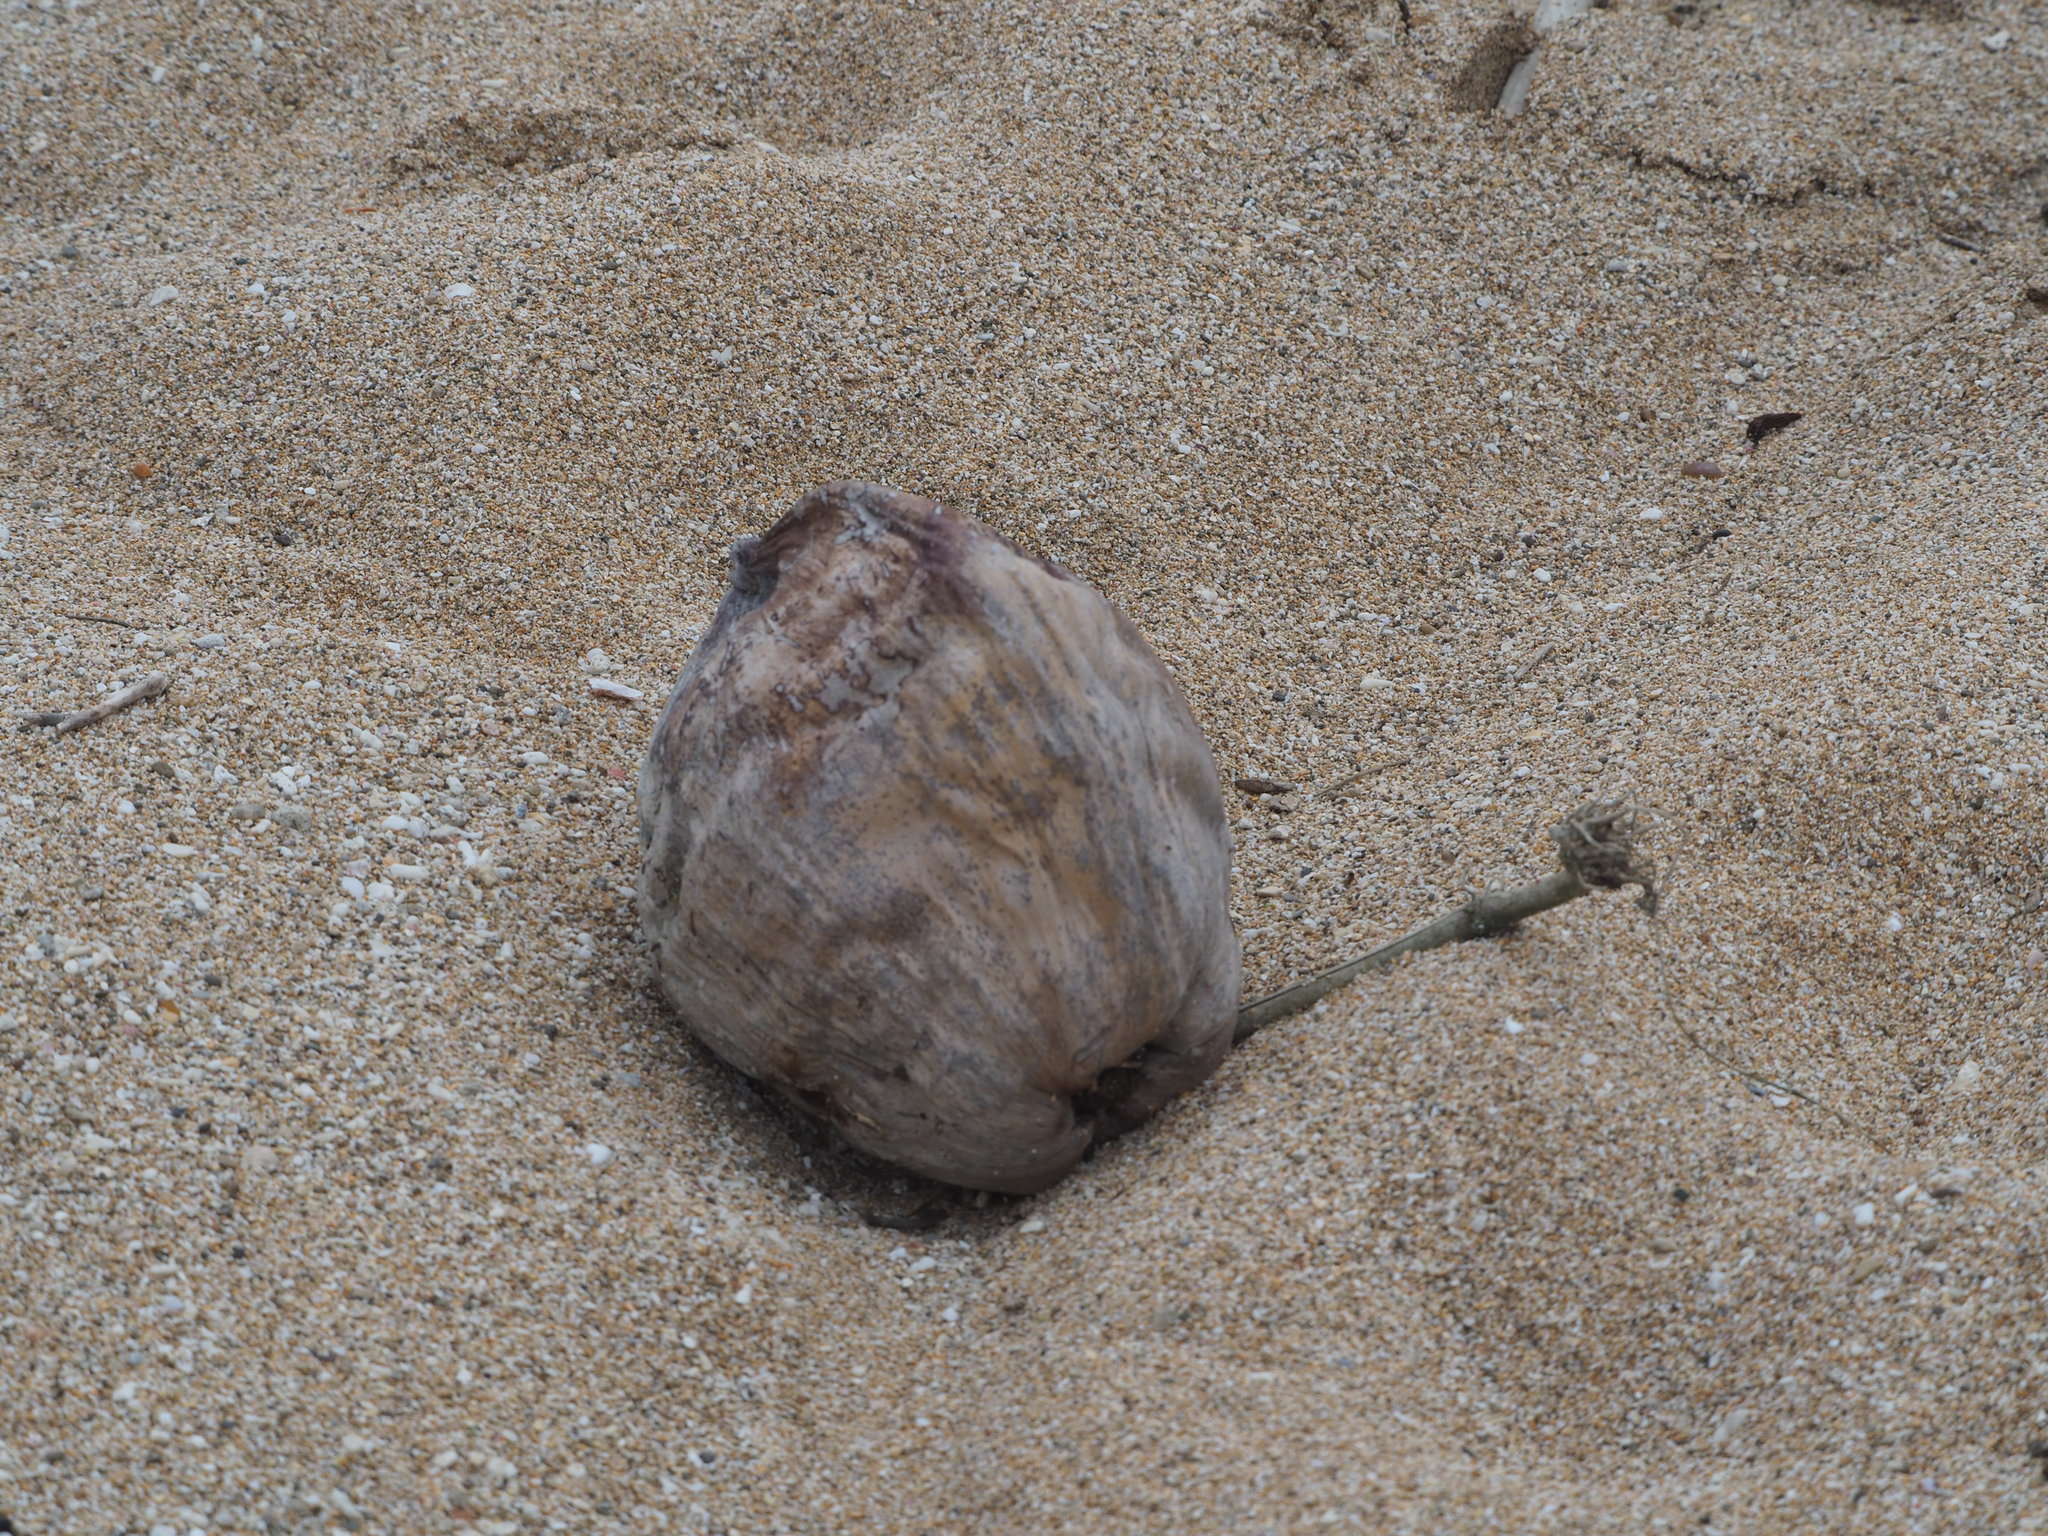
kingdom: Plantae
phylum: Tracheophyta
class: Liliopsida
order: Arecales
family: Arecaceae
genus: Cocos
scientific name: Cocos nucifera
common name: Coconut palm
